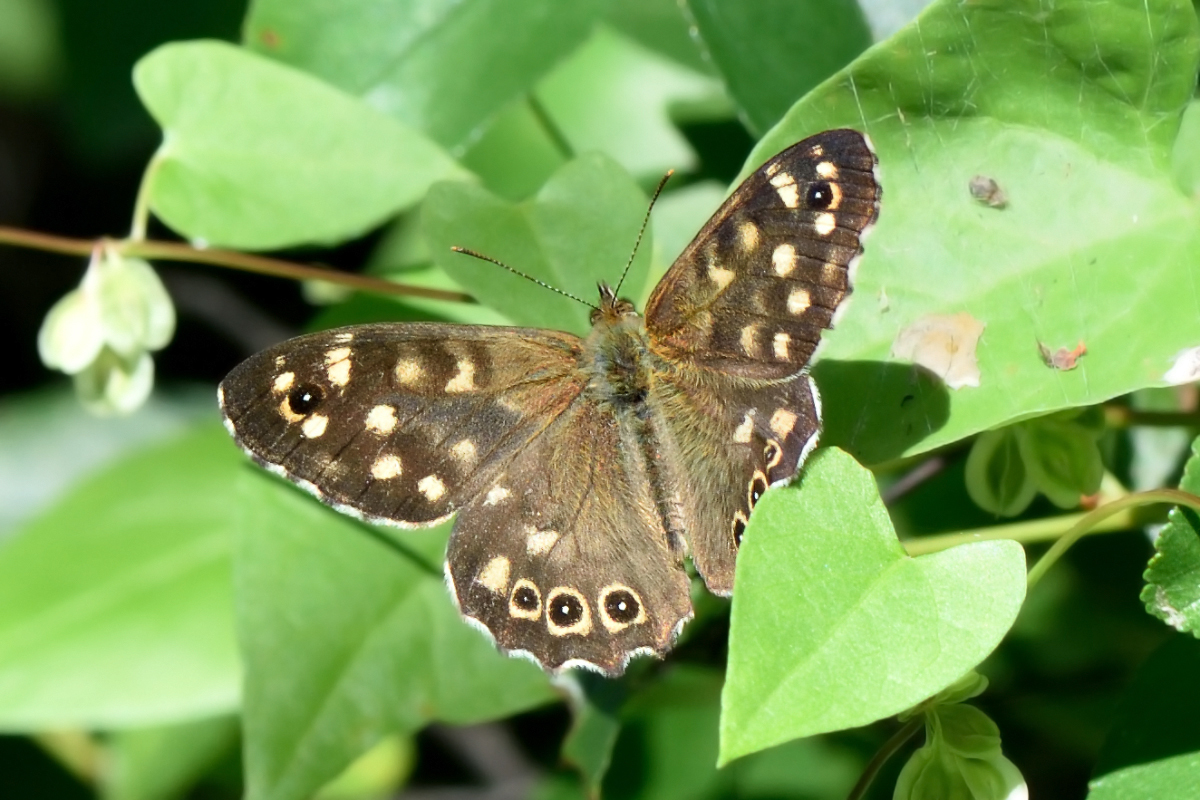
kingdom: Animalia
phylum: Arthropoda
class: Insecta
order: Lepidoptera
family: Nymphalidae
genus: Pararge
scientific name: Pararge aegeria
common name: Speckled wood
